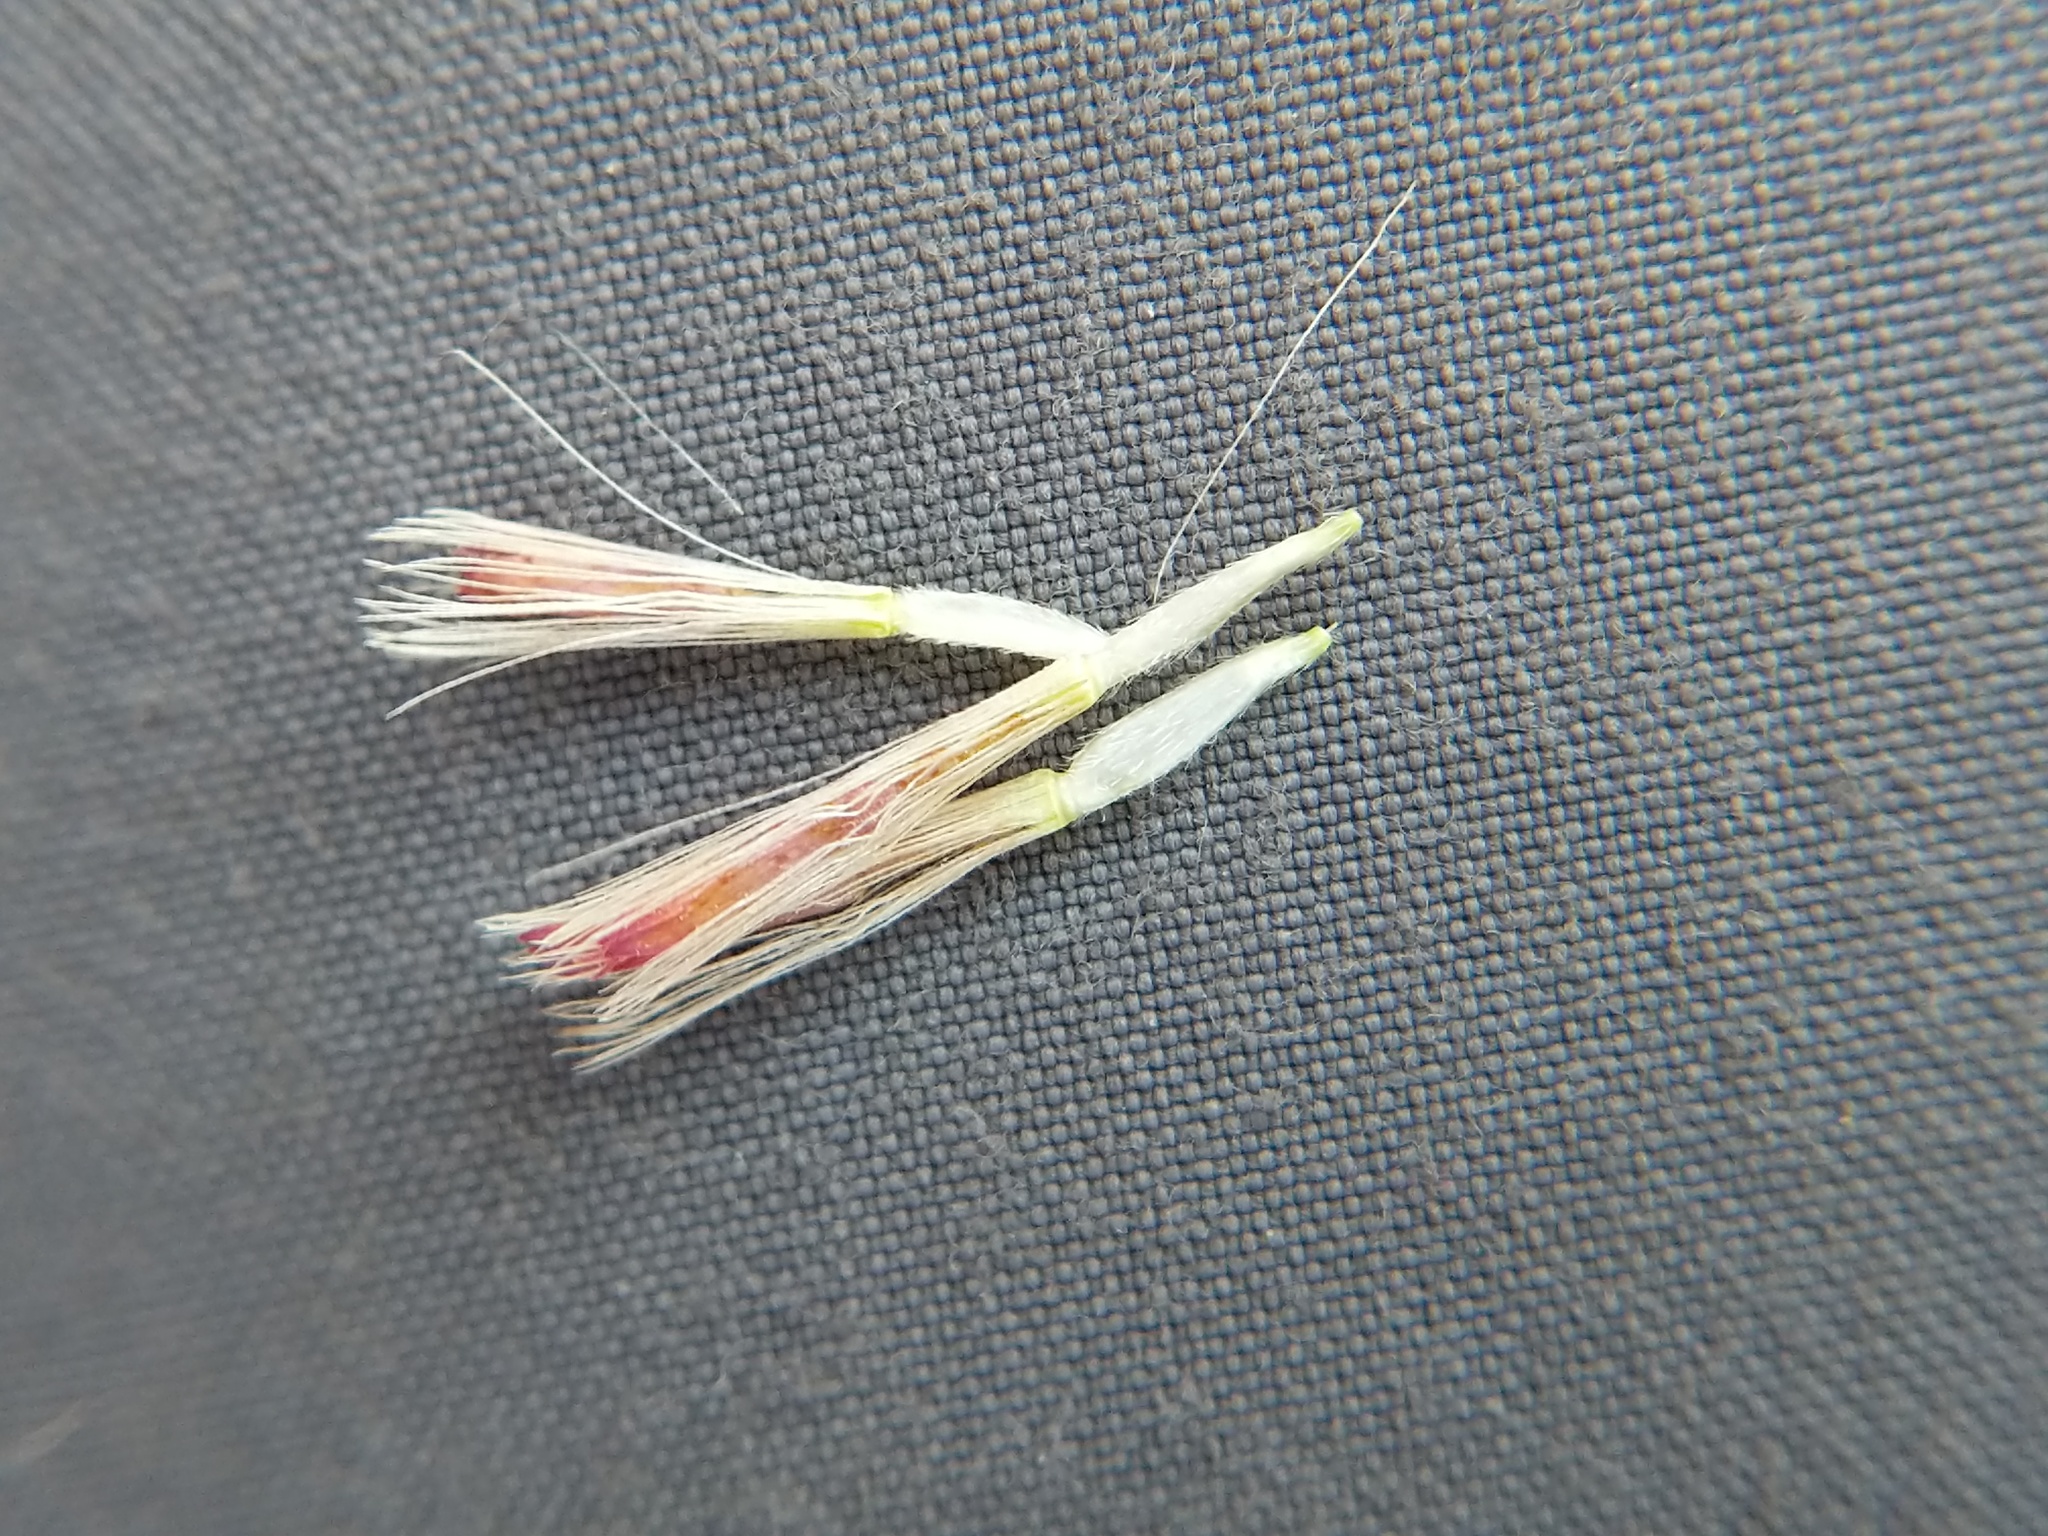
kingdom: Plantae
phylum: Tracheophyta
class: Magnoliopsida
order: Asterales
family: Asteraceae
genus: Symphyotrichum
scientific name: Symphyotrichum novi-belgii
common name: Michaelmas daisy
